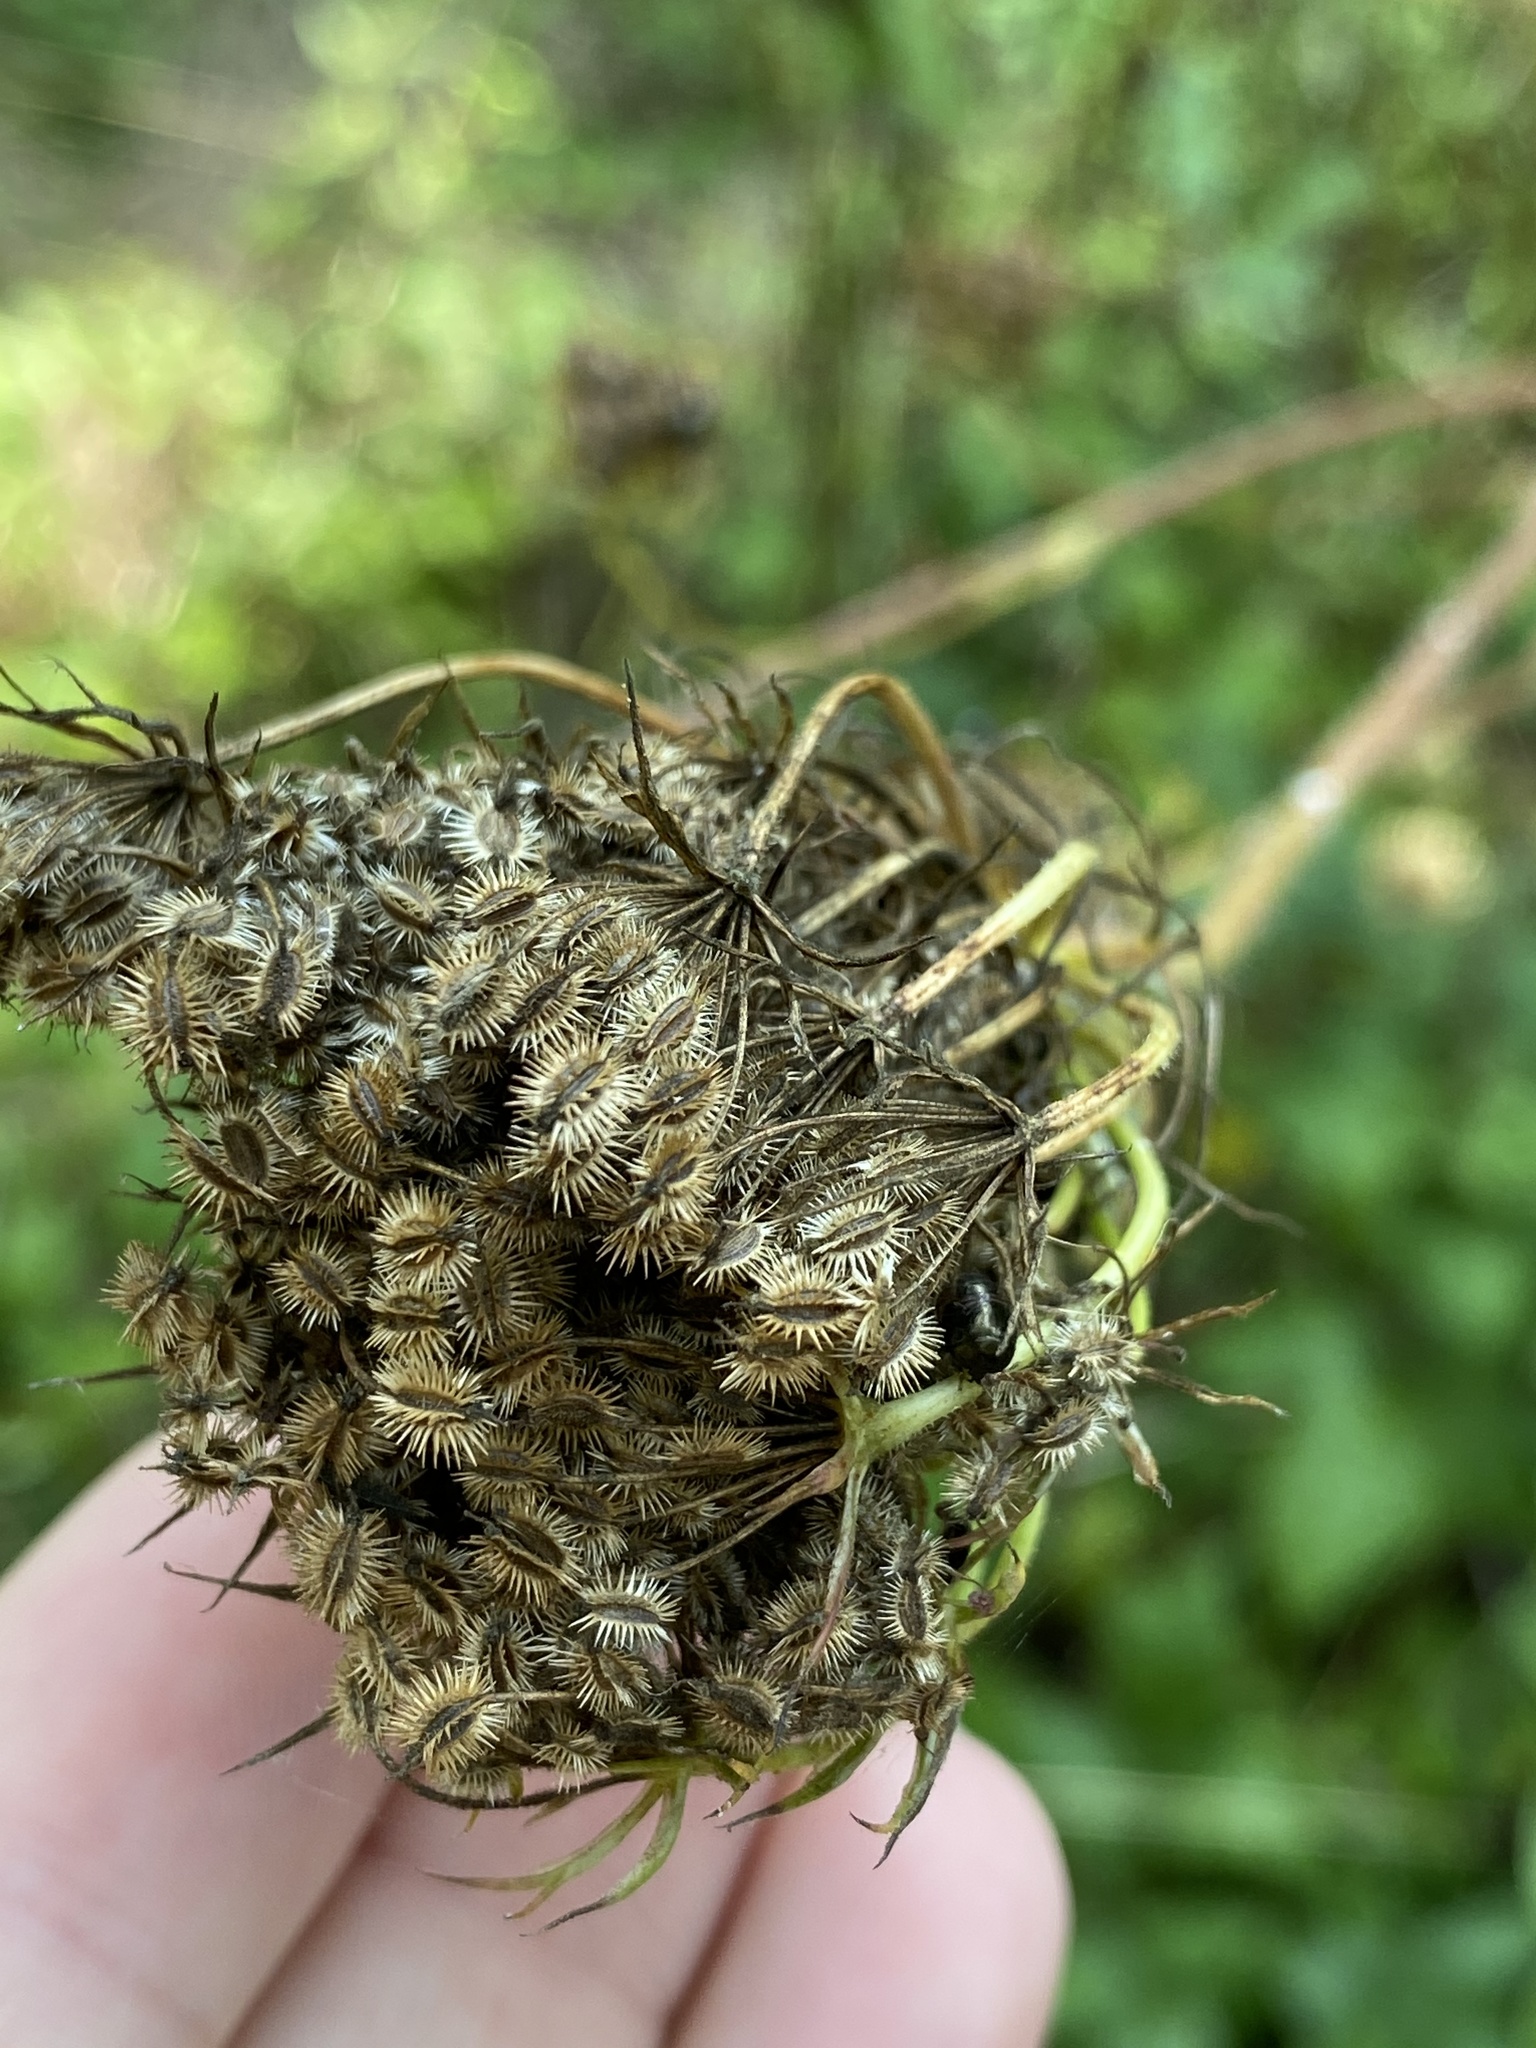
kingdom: Plantae
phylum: Tracheophyta
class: Magnoliopsida
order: Apiales
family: Apiaceae
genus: Daucus
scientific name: Daucus carota
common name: Wild carrot
